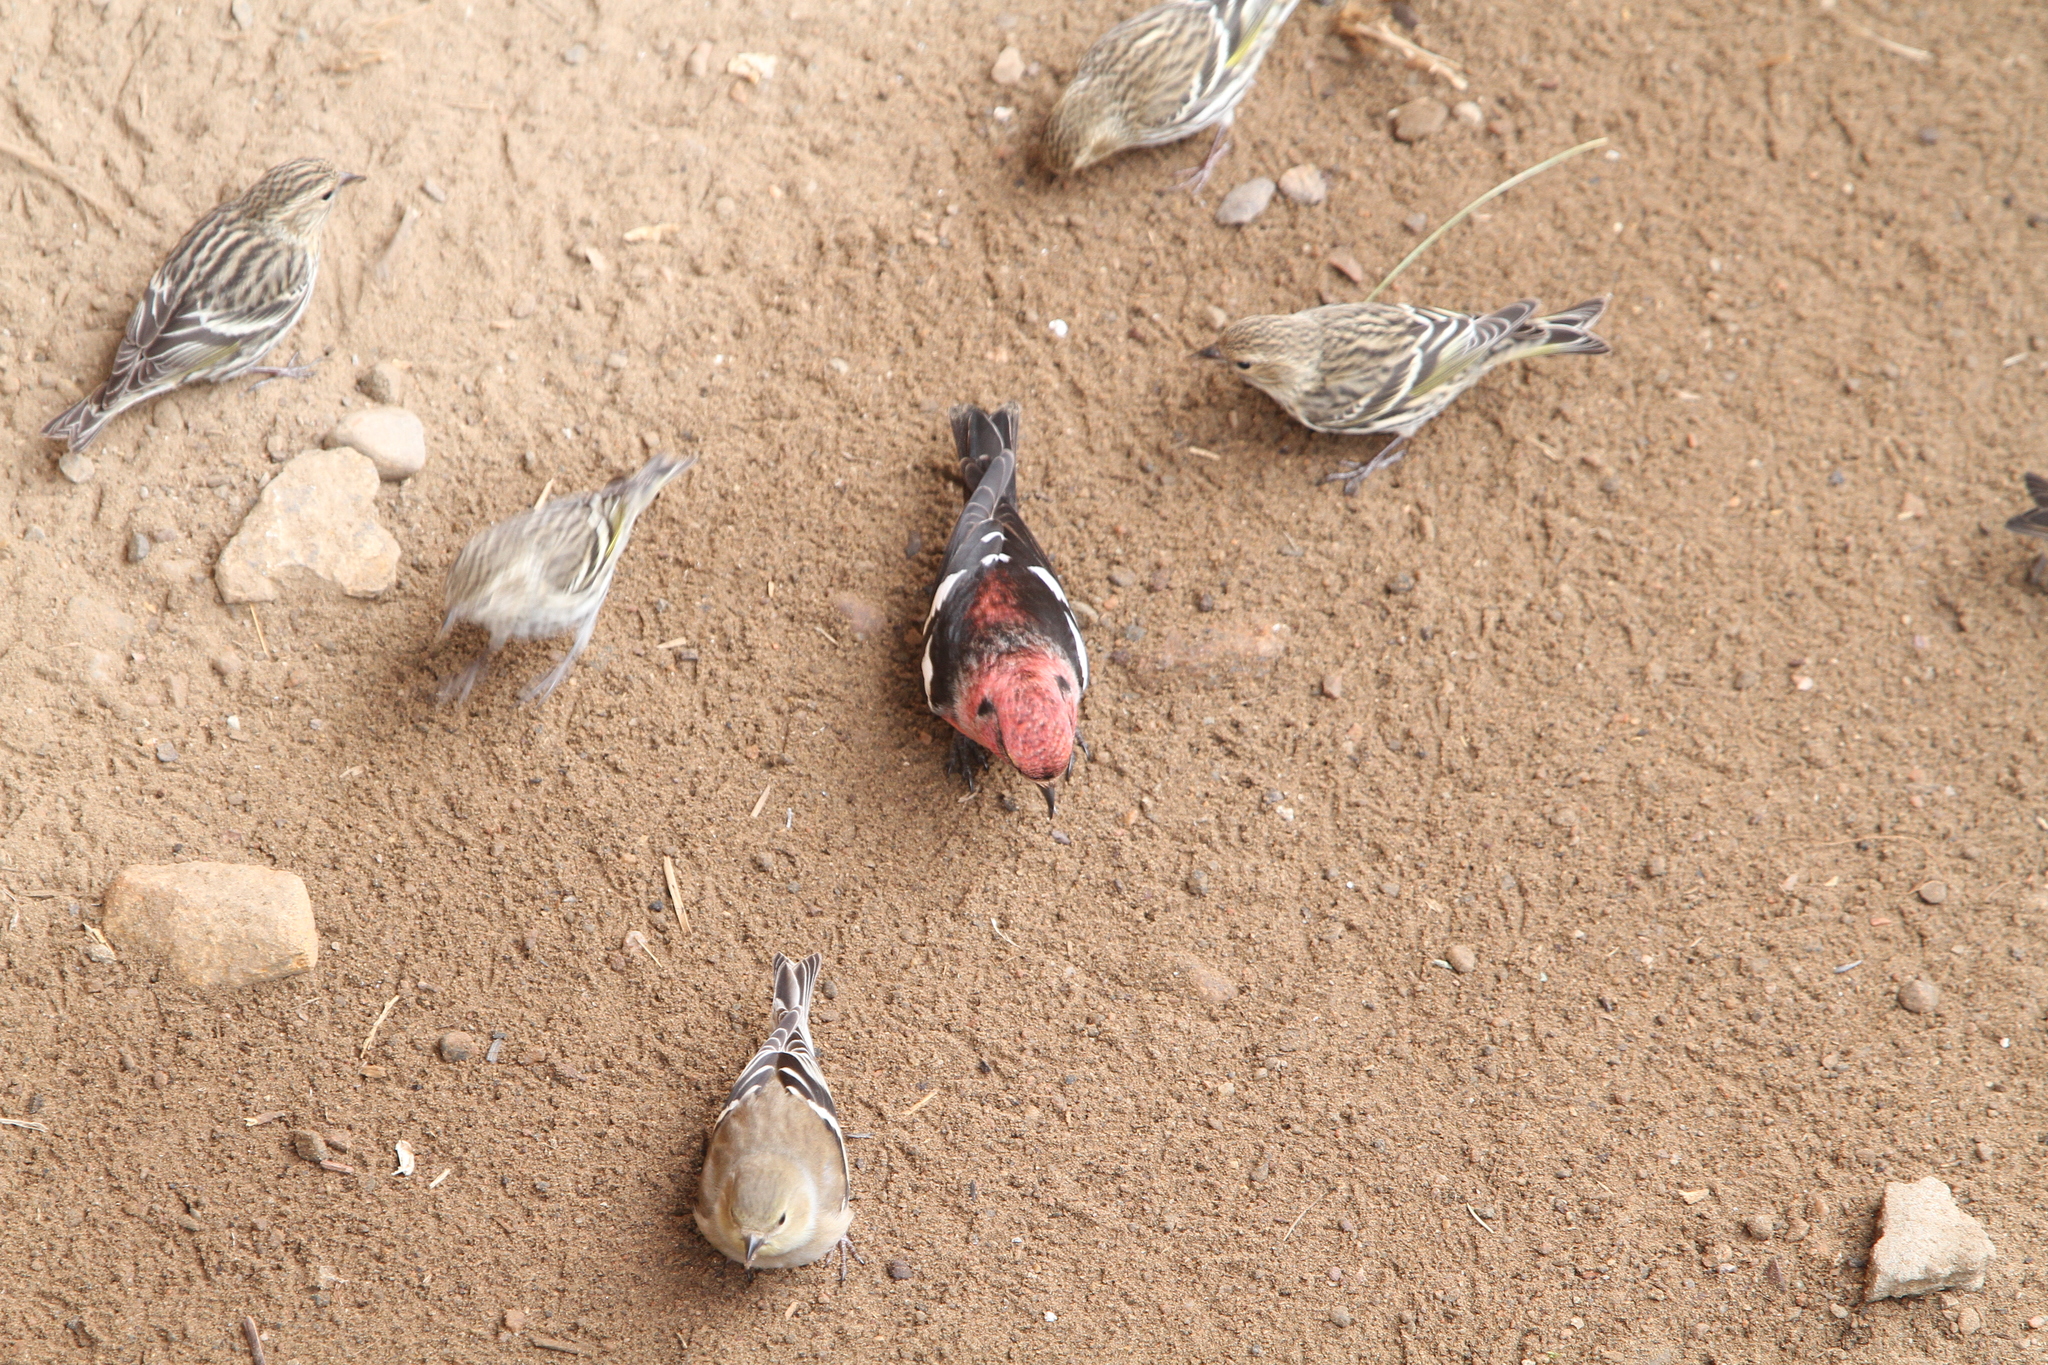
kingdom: Animalia
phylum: Chordata
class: Aves
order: Passeriformes
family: Fringillidae
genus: Loxia
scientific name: Loxia leucoptera
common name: Two-barred crossbill
